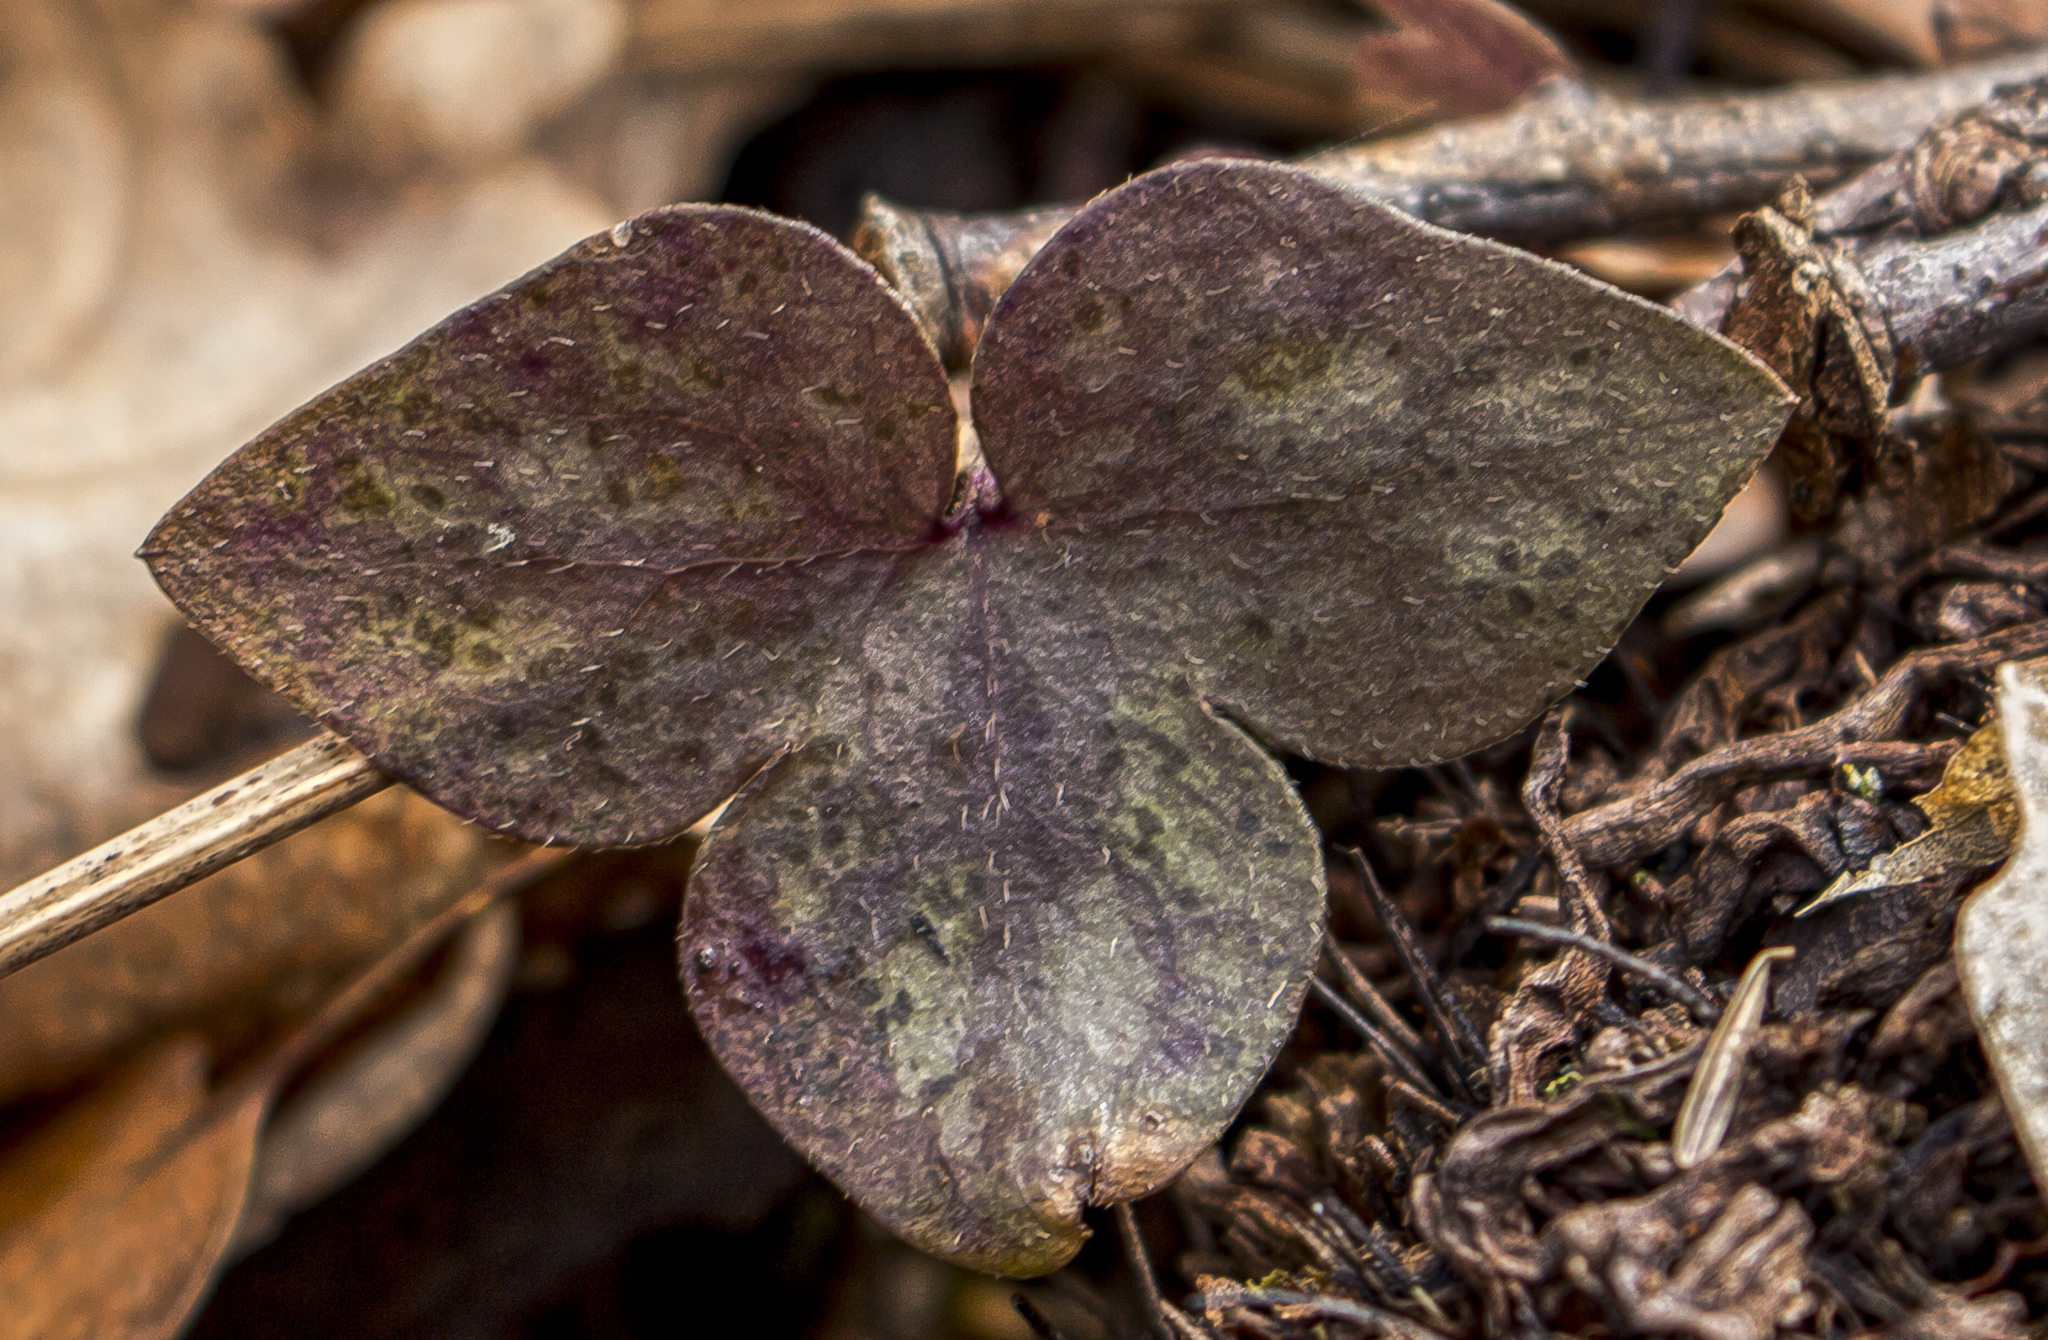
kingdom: Plantae
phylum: Tracheophyta
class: Magnoliopsida
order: Ranunculales
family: Ranunculaceae
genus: Hepatica
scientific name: Hepatica acutiloba
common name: Sharp-lobed hepatica
